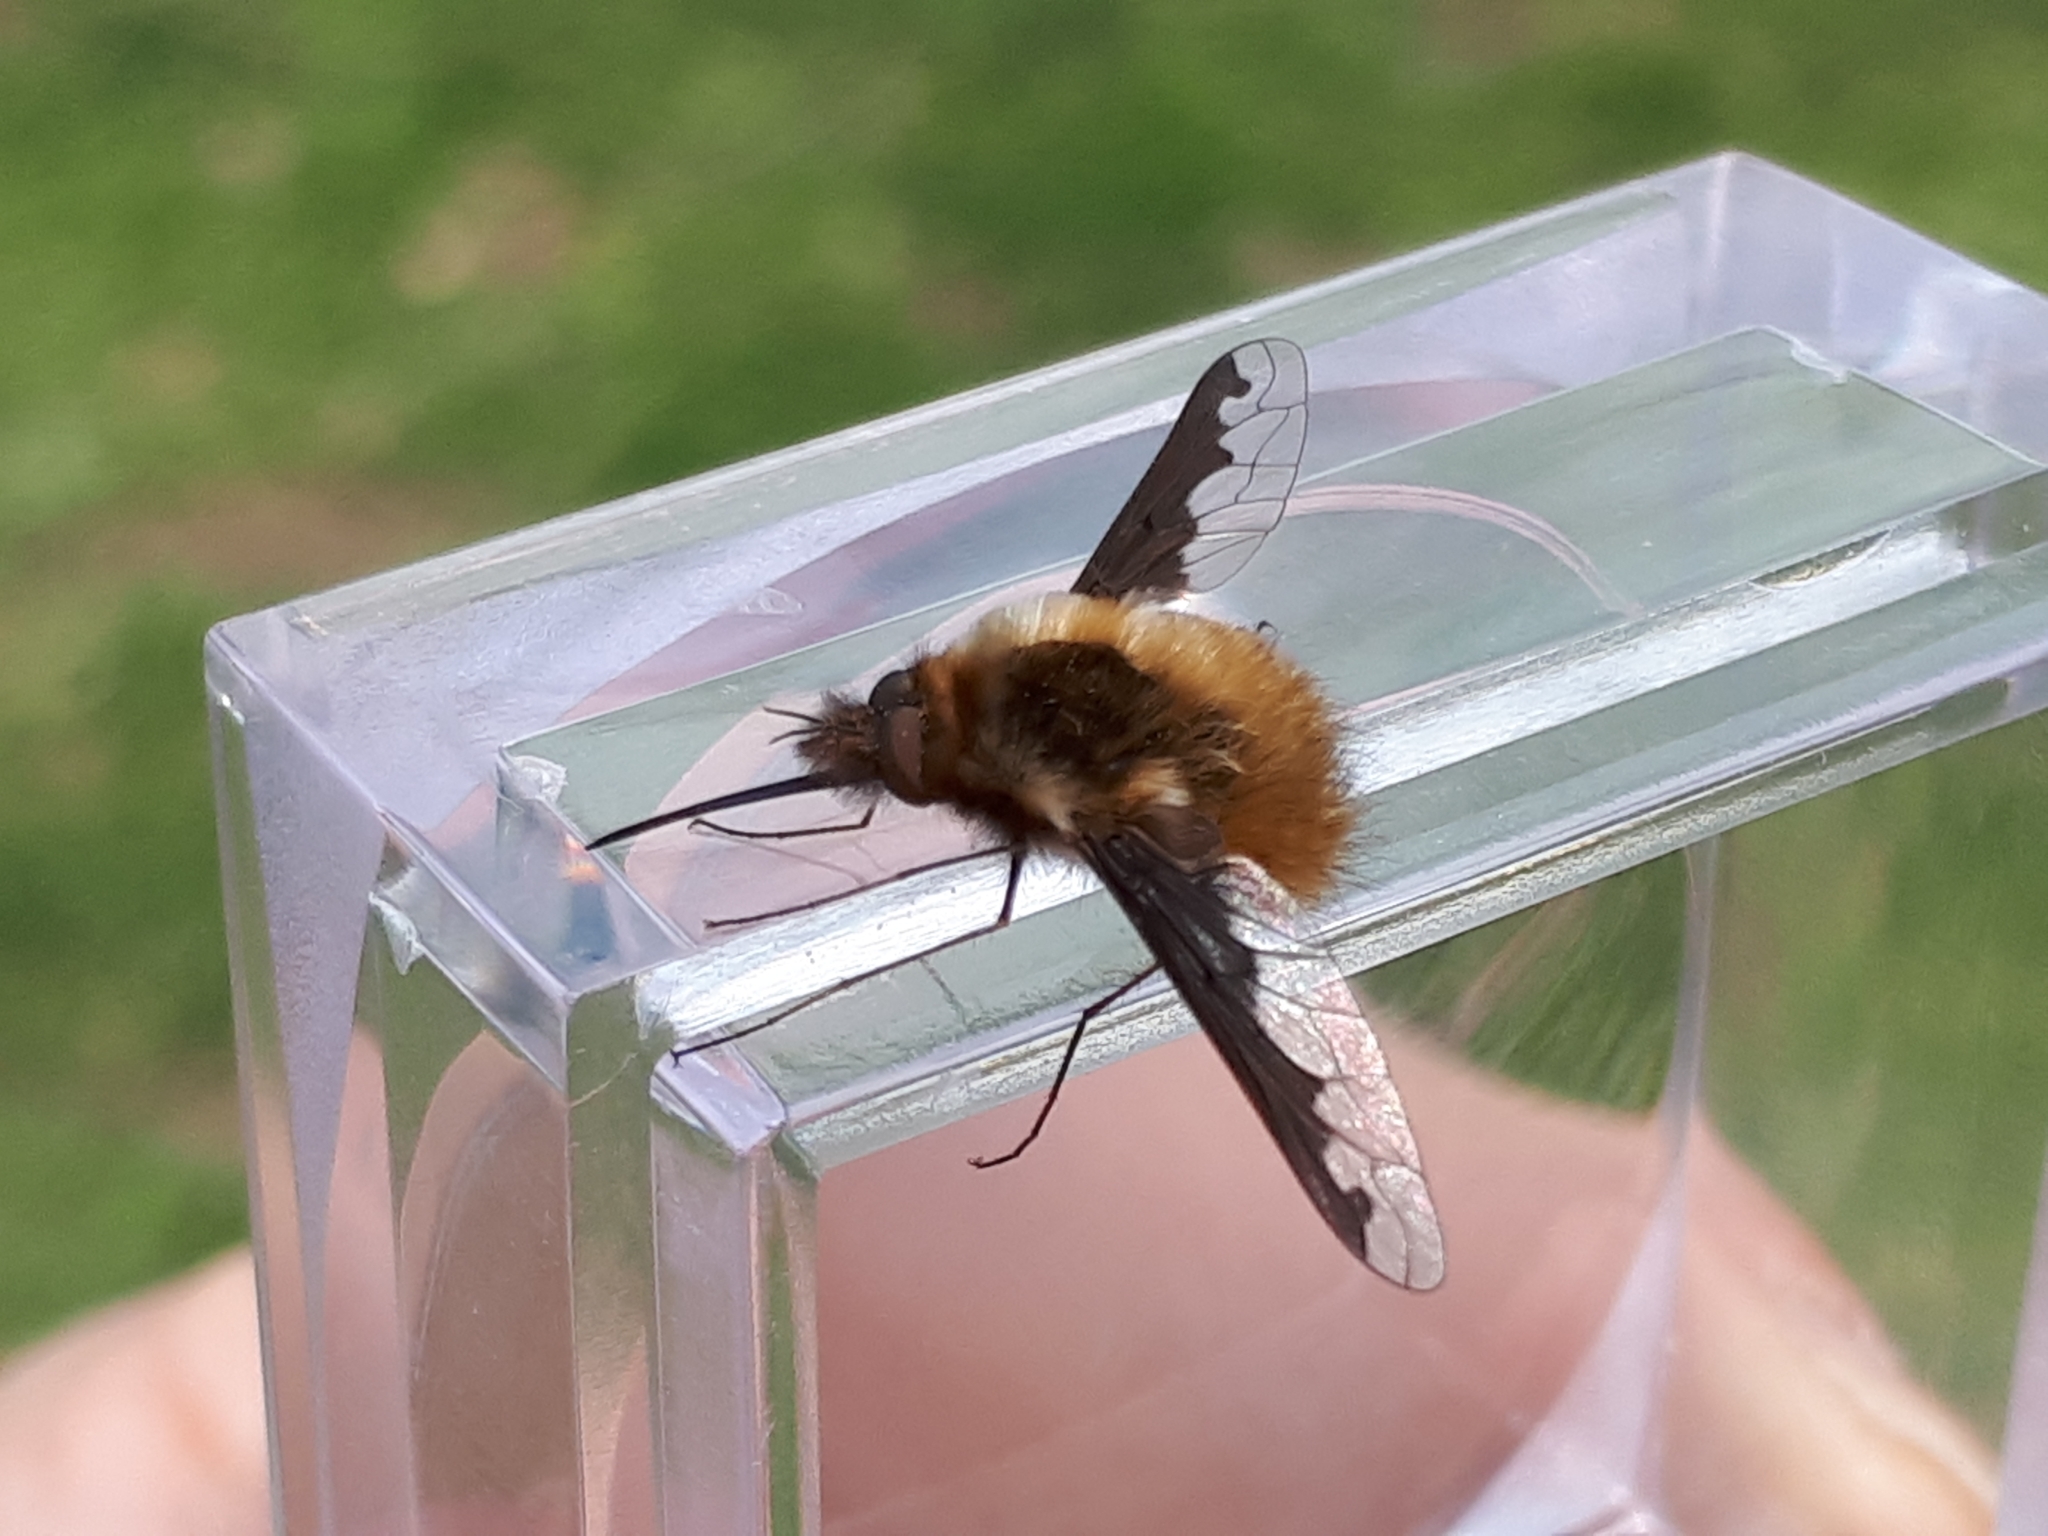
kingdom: Animalia
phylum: Arthropoda
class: Insecta
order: Diptera
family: Bombyliidae
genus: Bombylius
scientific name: Bombylius major
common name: Bee fly
